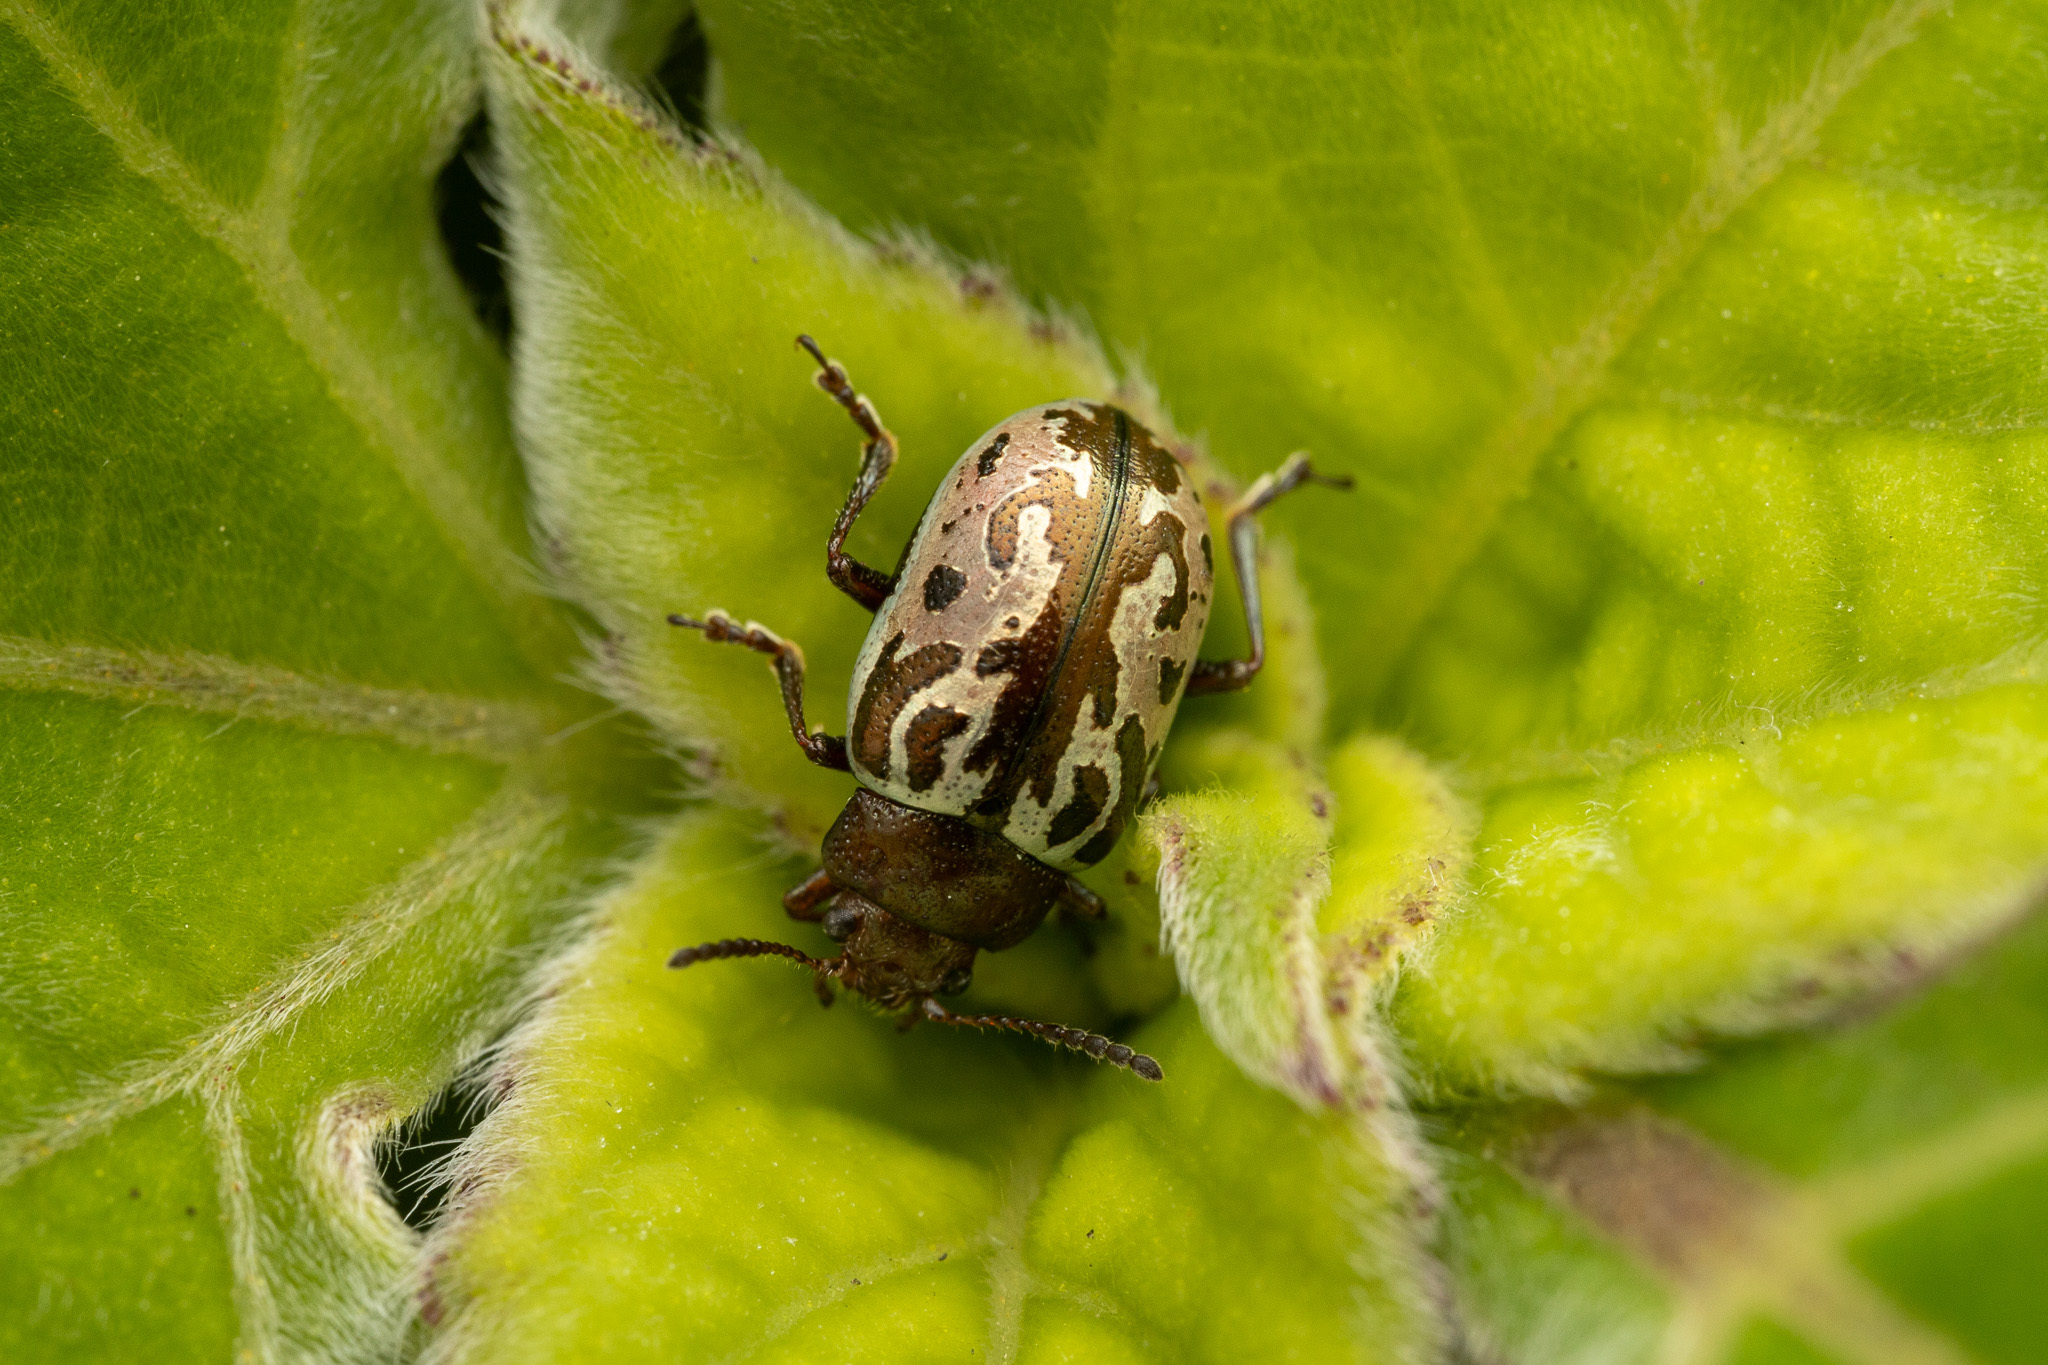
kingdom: Animalia
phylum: Arthropoda
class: Insecta
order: Coleoptera
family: Chrysomelidae
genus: Calligrapha
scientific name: Calligrapha
